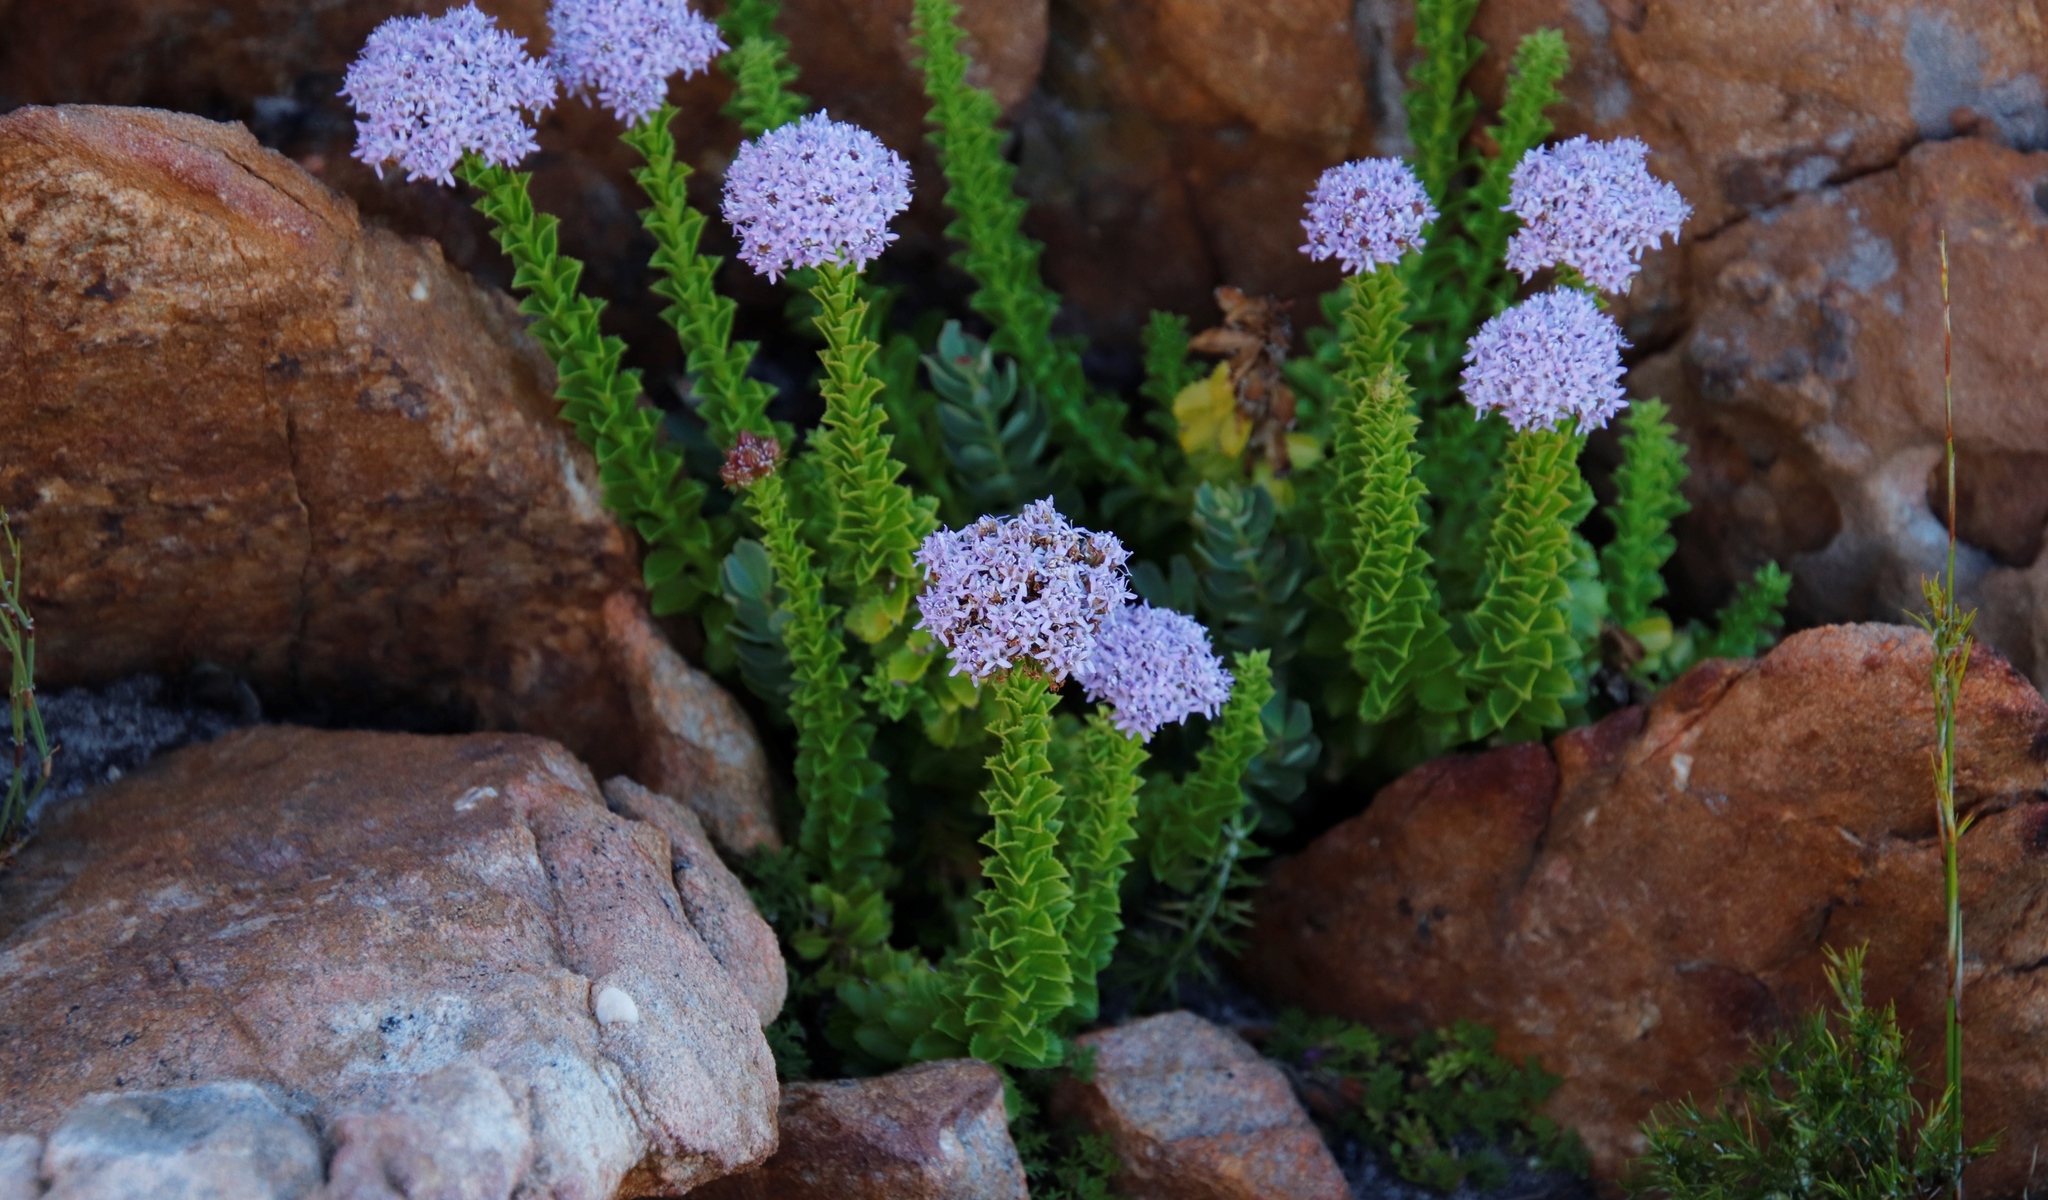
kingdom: Plantae
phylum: Tracheophyta
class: Magnoliopsida
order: Lamiales
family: Scrophulariaceae
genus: Pseudoselago
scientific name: Pseudoselago serrata
